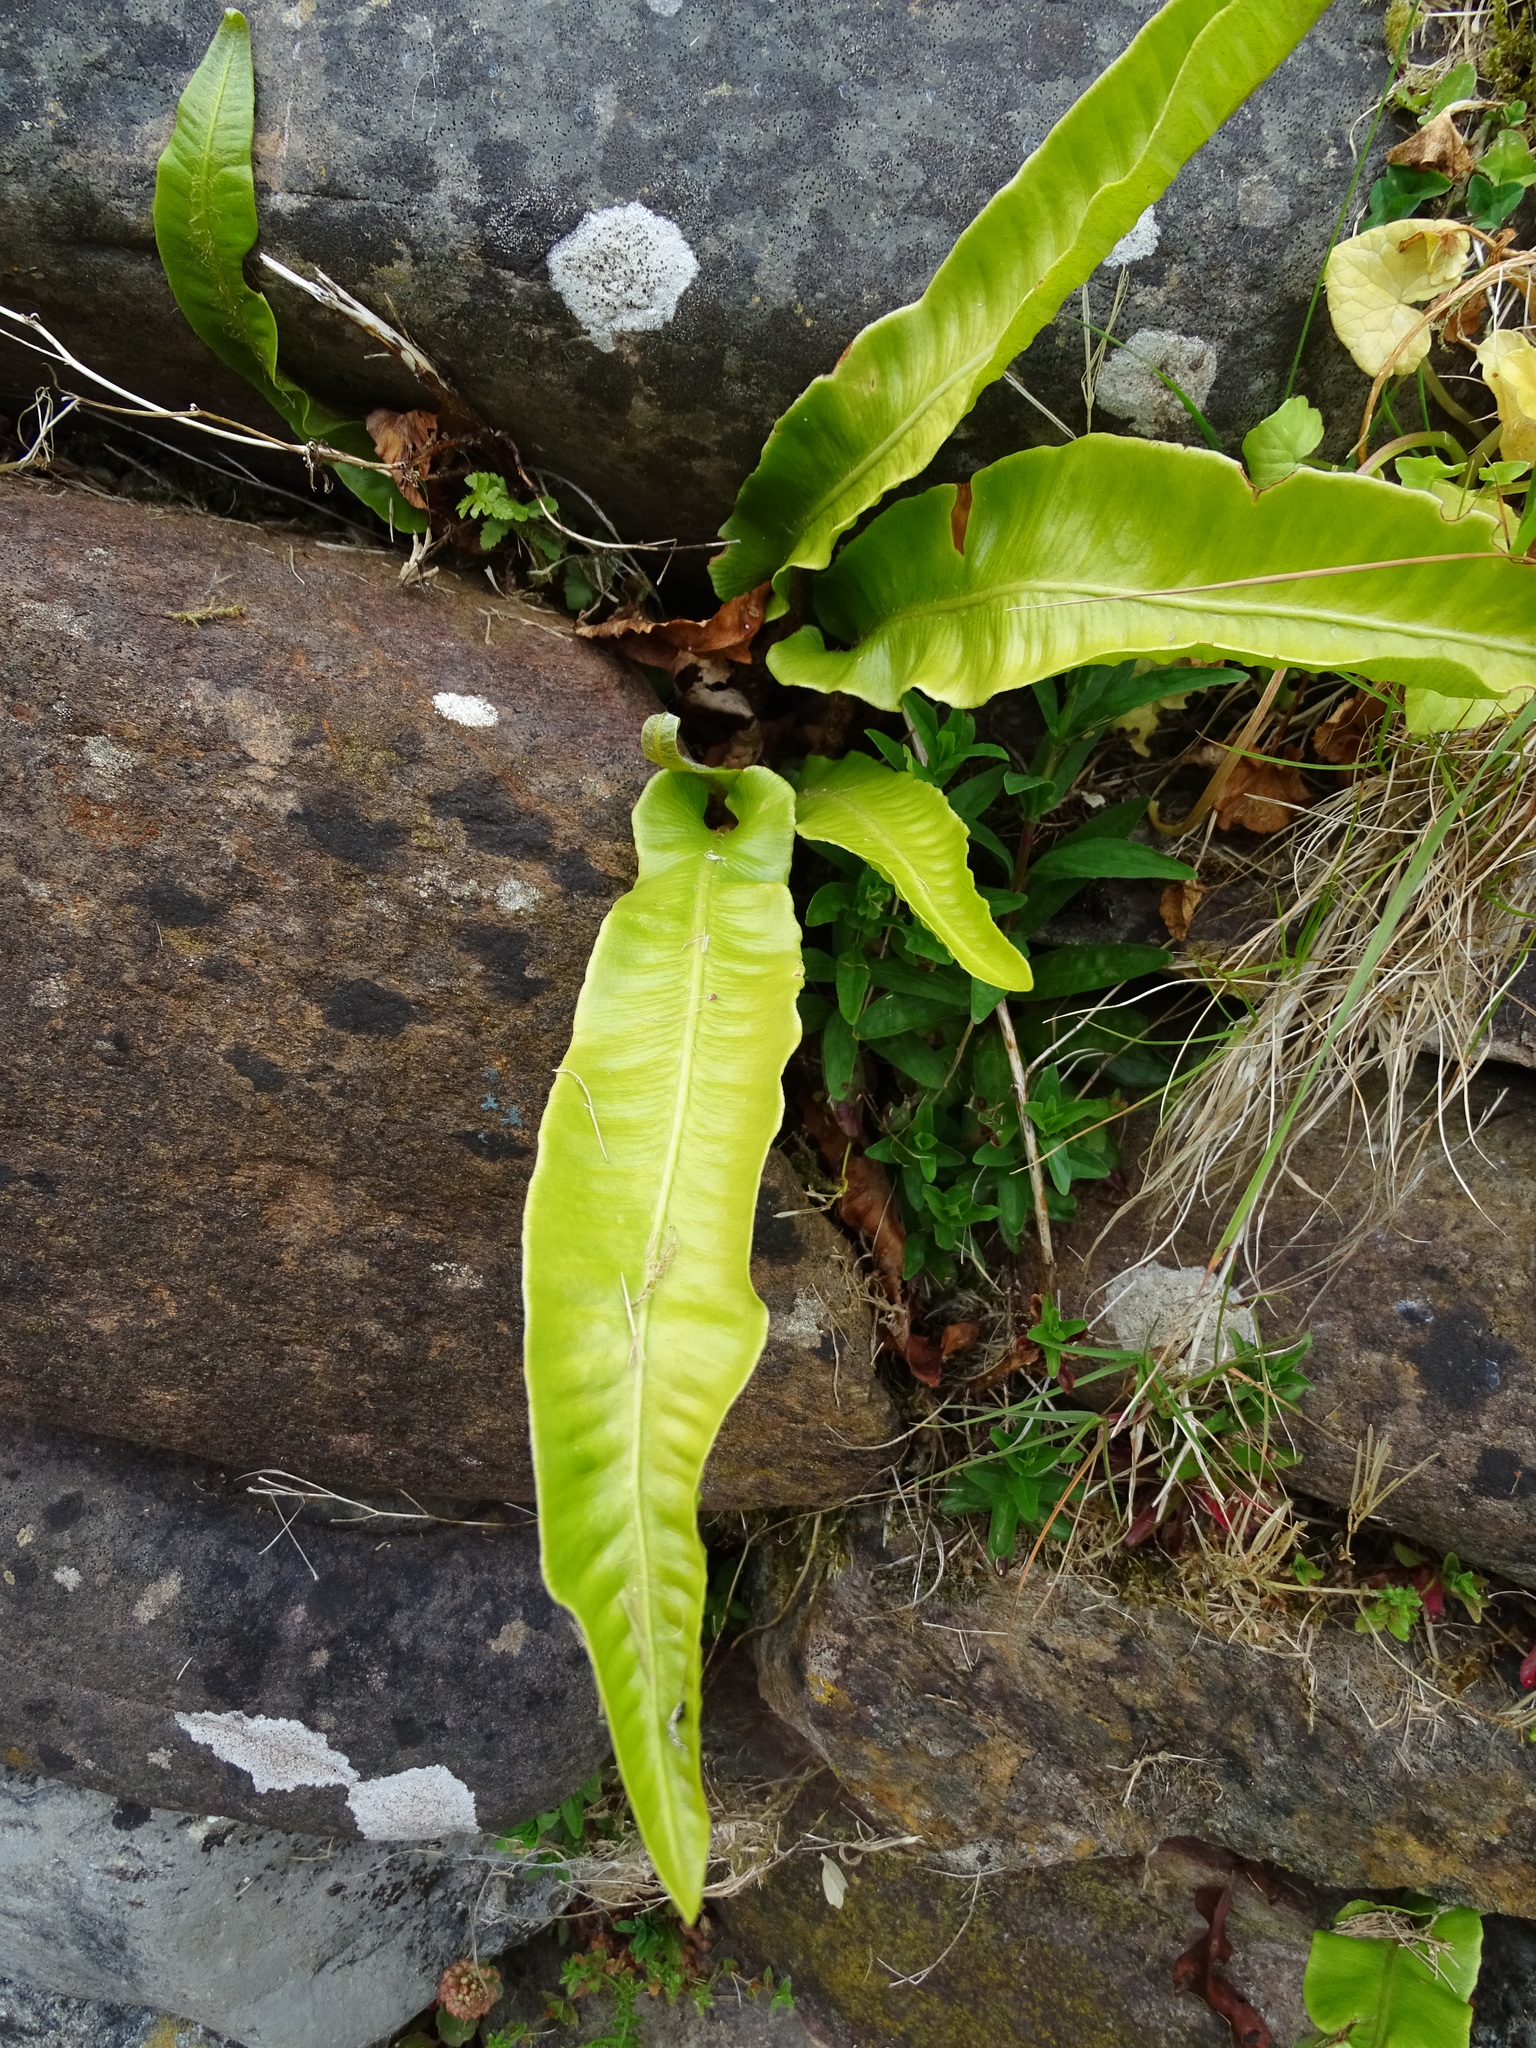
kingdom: Plantae
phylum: Tracheophyta
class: Polypodiopsida
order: Polypodiales
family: Aspleniaceae
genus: Asplenium
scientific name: Asplenium scolopendrium
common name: Hart's-tongue fern
